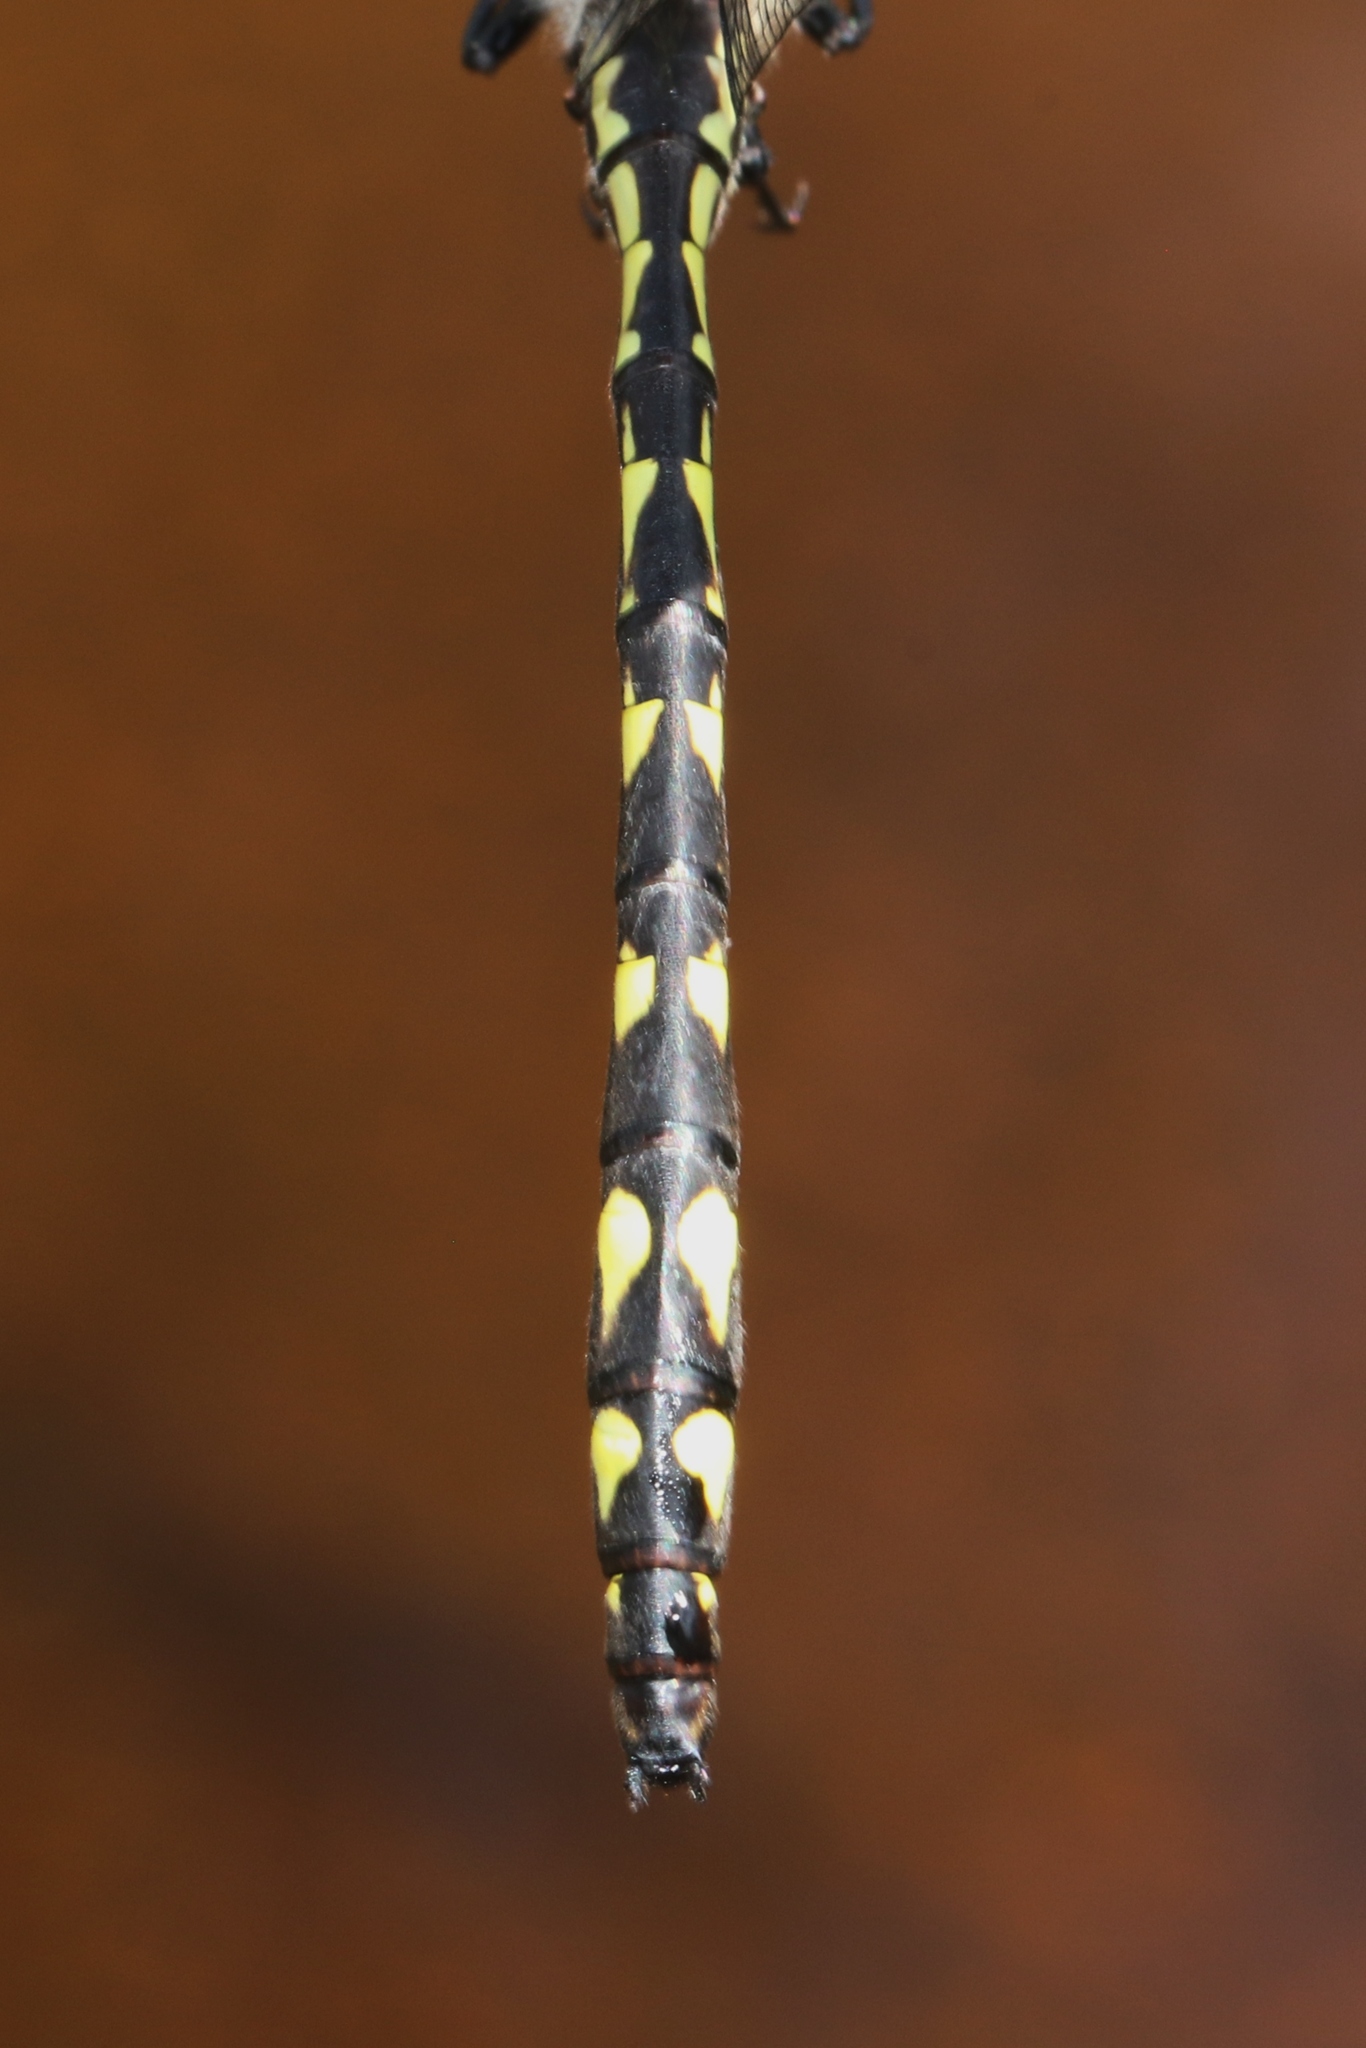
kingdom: Animalia
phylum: Arthropoda
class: Insecta
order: Odonata
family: Cordulegastridae
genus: Cordulegaster
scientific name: Cordulegaster diastatops
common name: Delta-spotted spiketail
